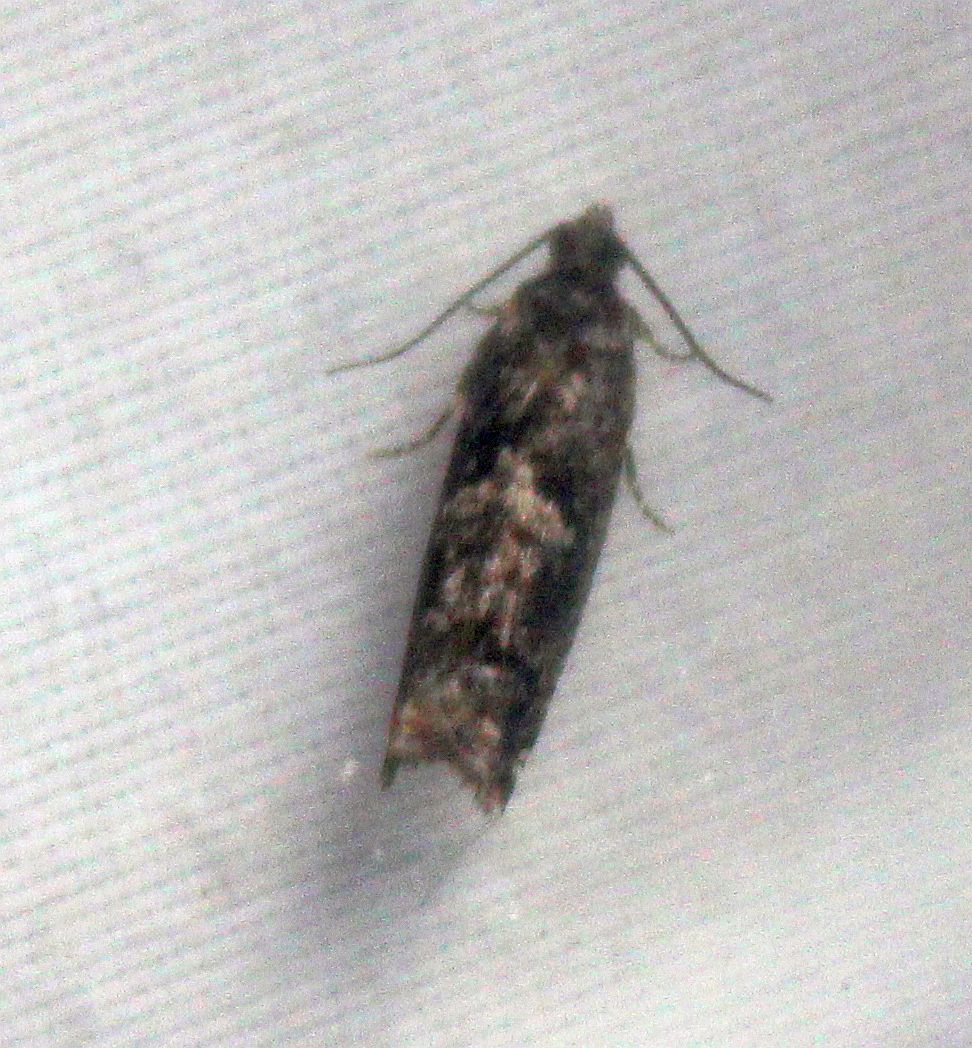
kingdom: Animalia
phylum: Arthropoda
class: Insecta
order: Lepidoptera
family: Tortricidae
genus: Epinotia
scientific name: Epinotia immundana
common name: Common birch bell
